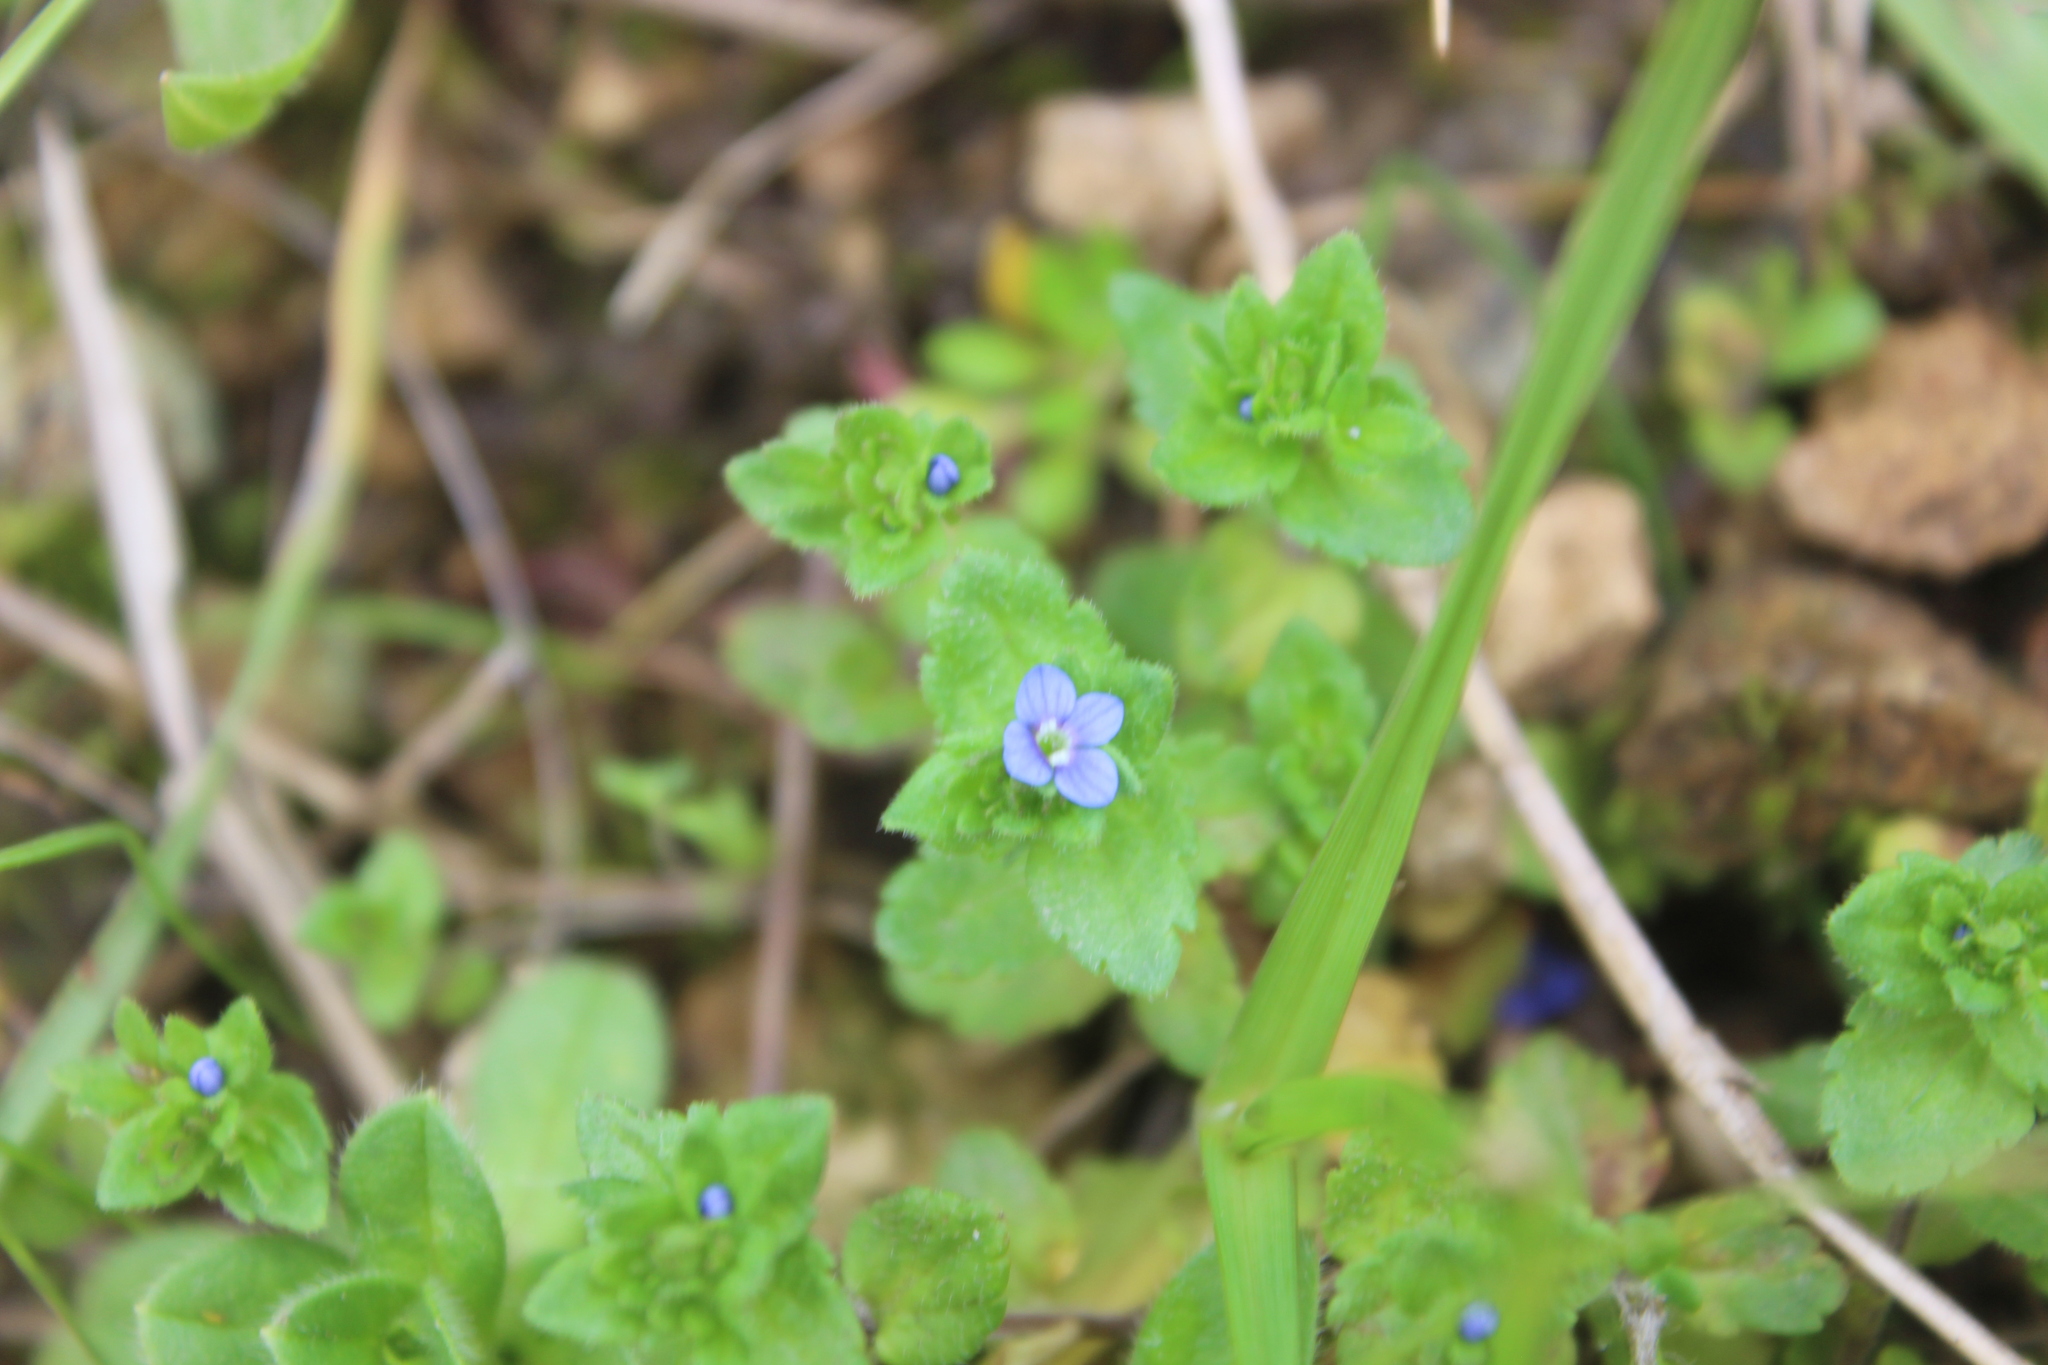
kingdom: Plantae
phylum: Tracheophyta
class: Magnoliopsida
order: Lamiales
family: Plantaginaceae
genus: Veronica
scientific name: Veronica arvensis
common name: Corn speedwell
